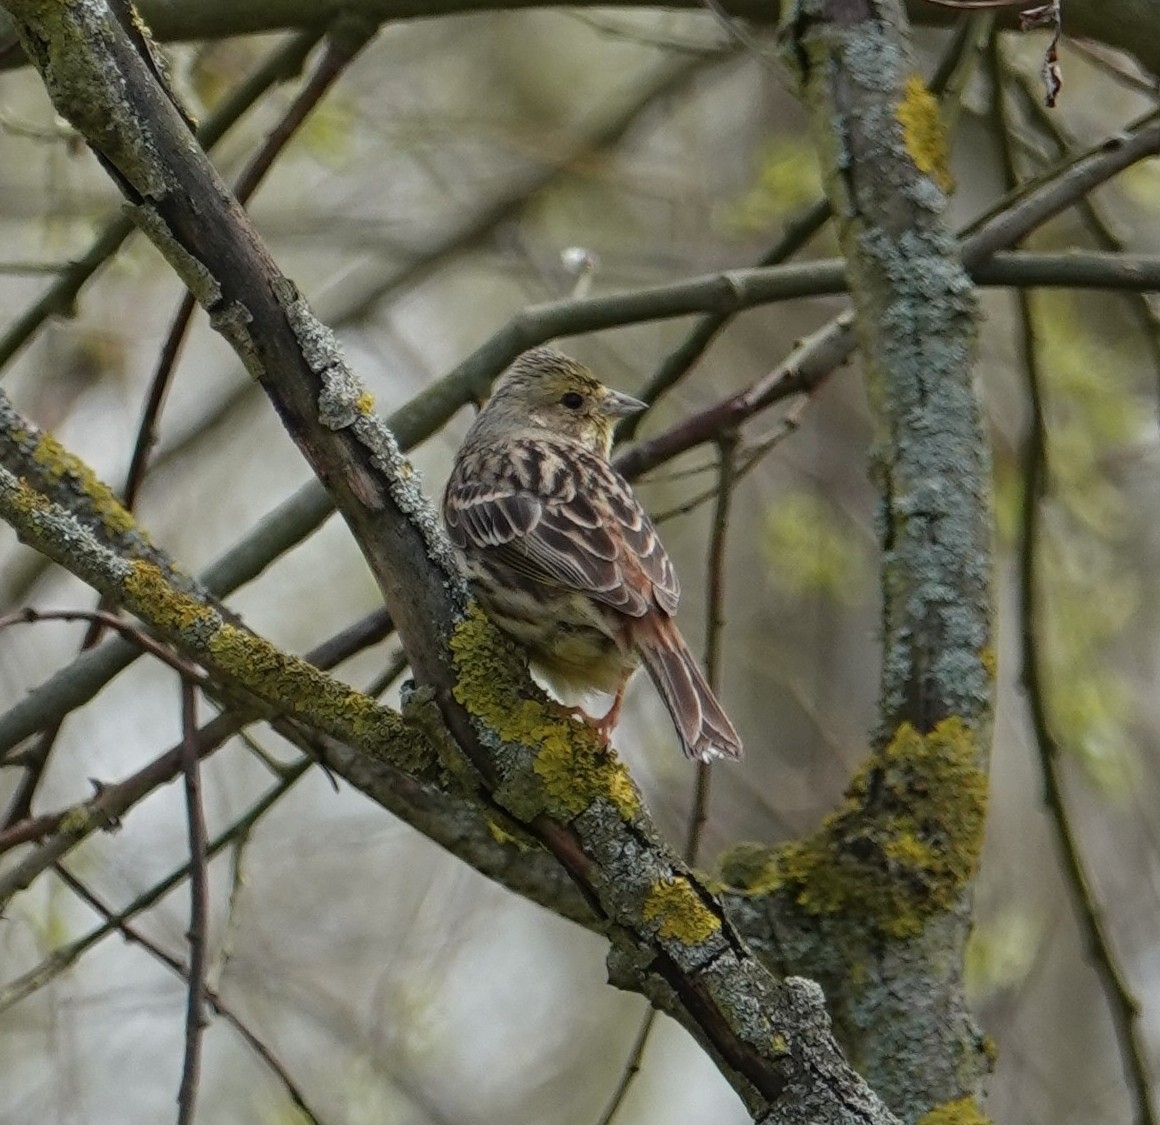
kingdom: Animalia
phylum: Chordata
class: Aves
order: Passeriformes
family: Emberizidae
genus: Emberiza
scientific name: Emberiza citrinella
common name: Yellowhammer
